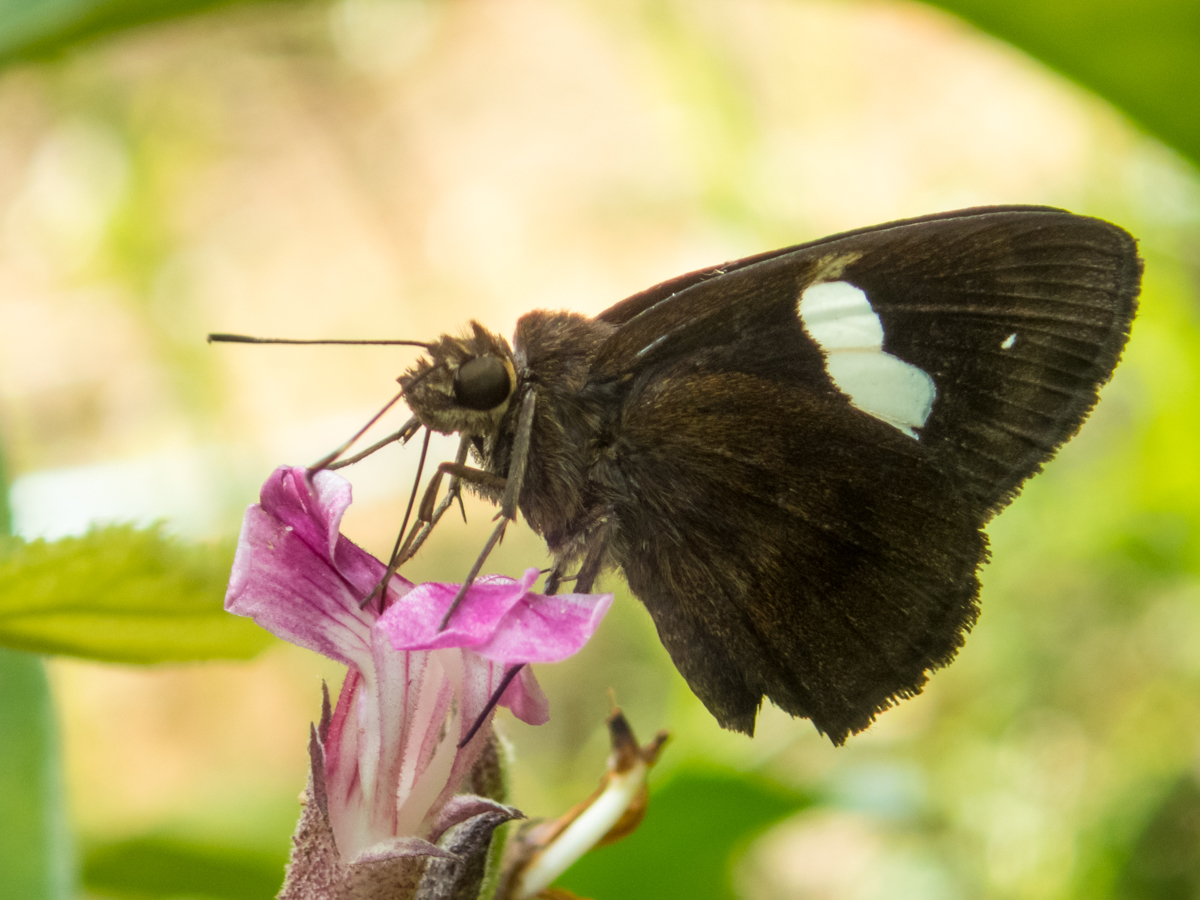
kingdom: Animalia
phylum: Arthropoda
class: Insecta
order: Lepidoptera
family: Hesperiidae
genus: Notocrypta
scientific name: Notocrypta paralysos
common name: Common banded demon
